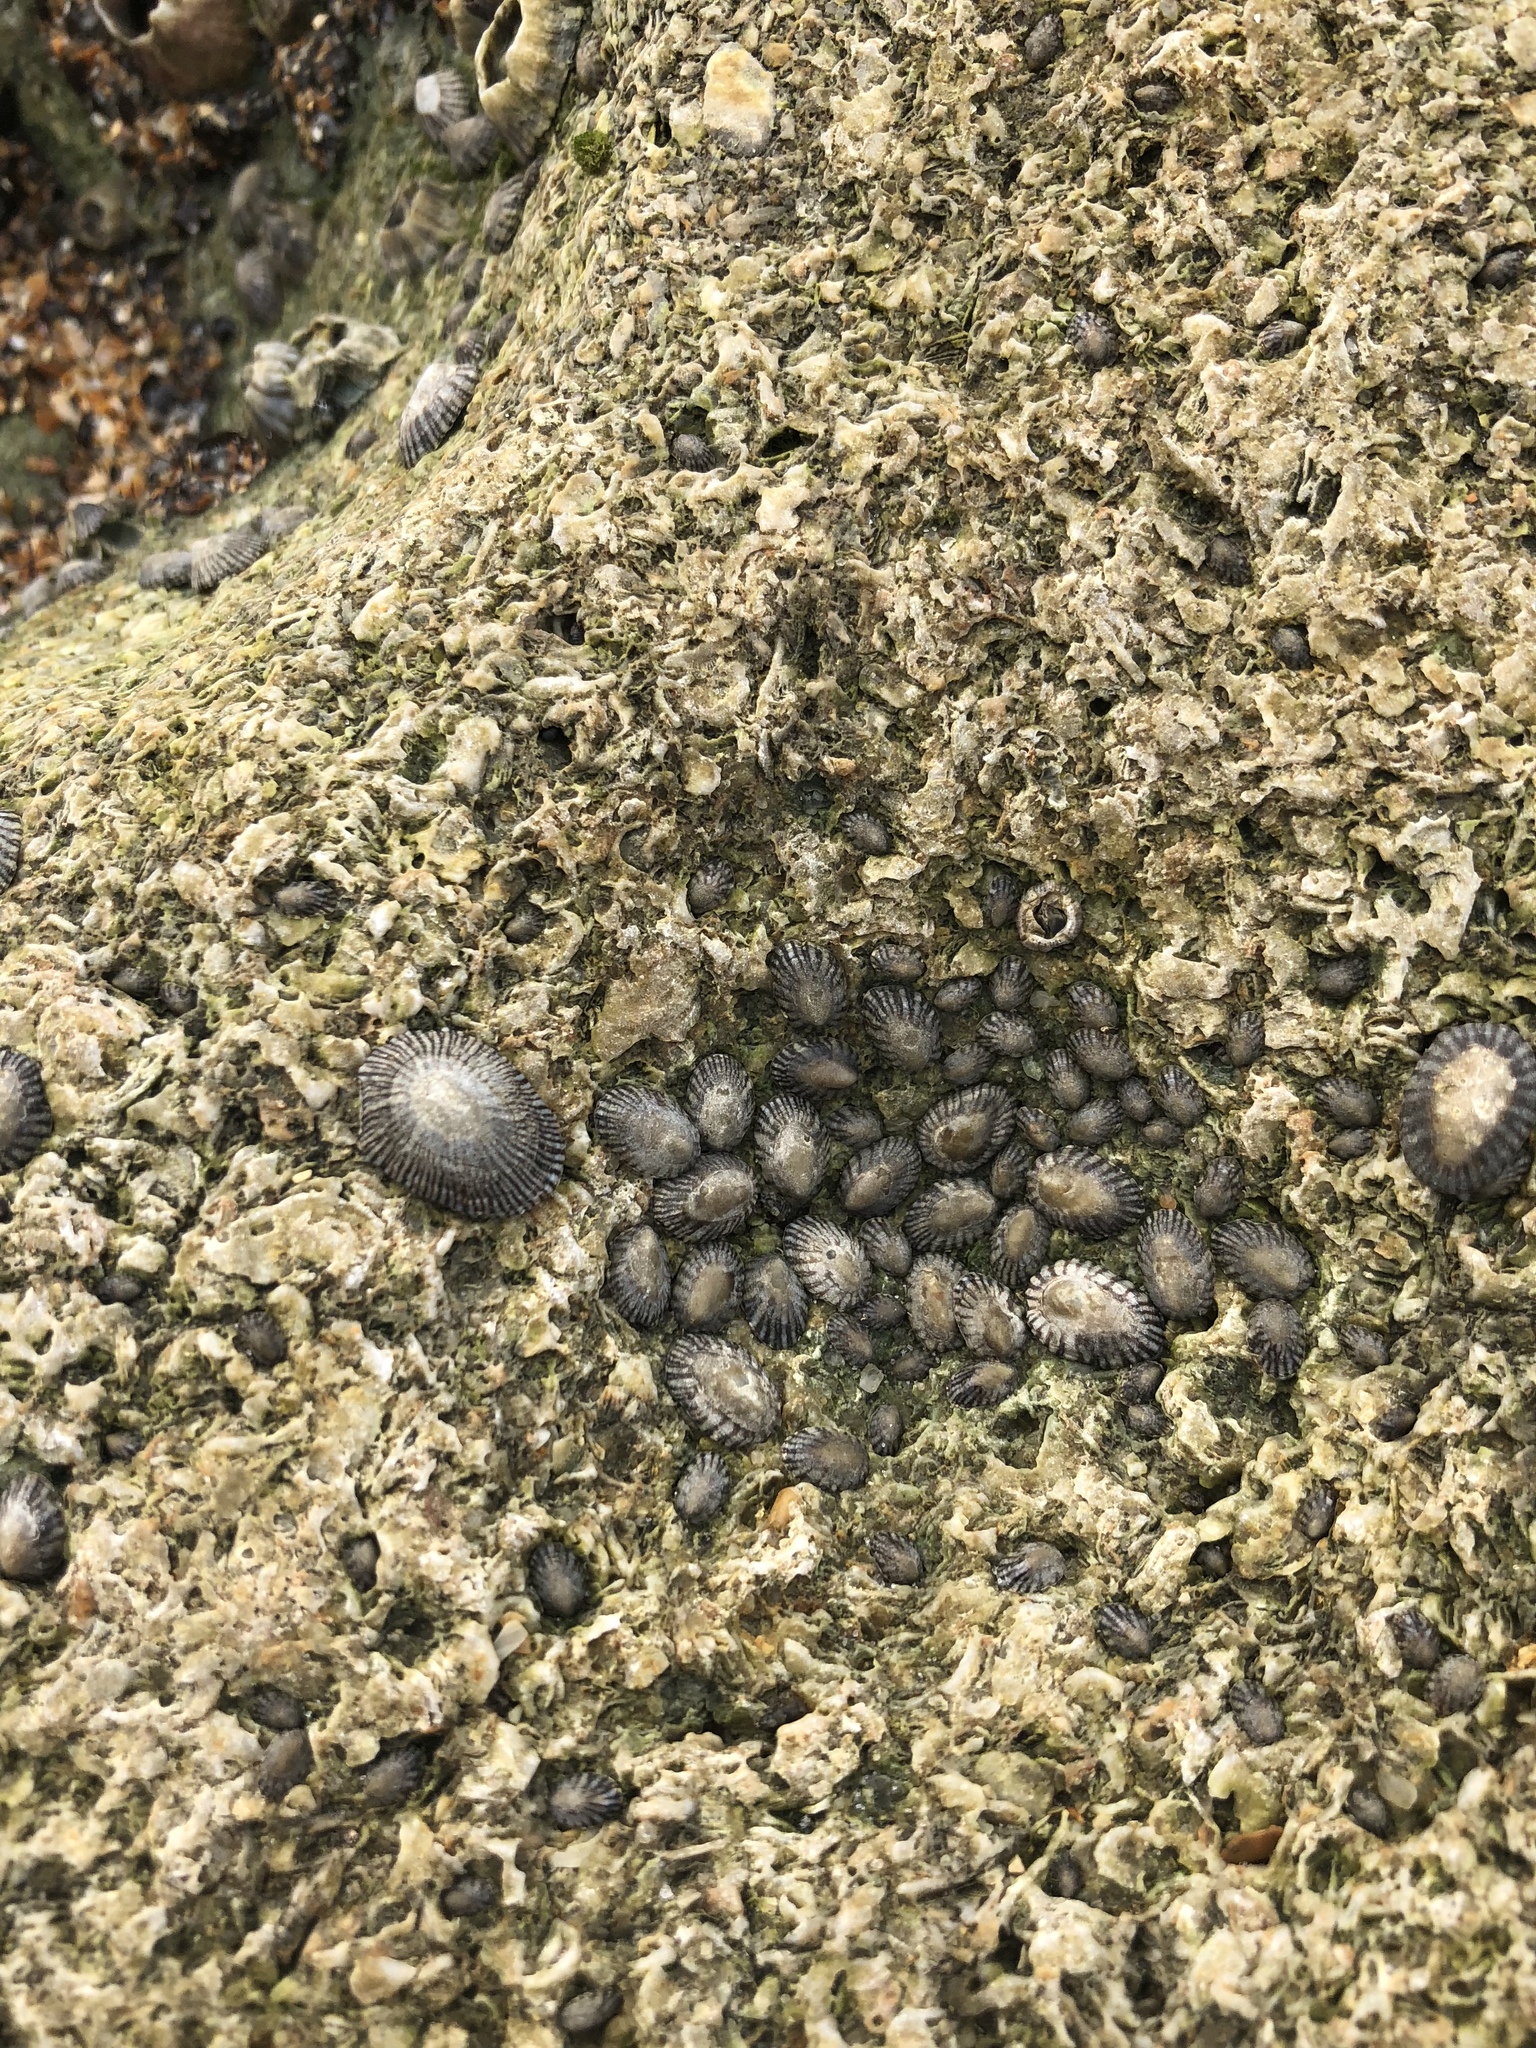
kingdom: Animalia
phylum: Mollusca
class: Gastropoda
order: Siphonariida
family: Siphonariidae
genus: Siphonaria
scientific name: Siphonaria naufragum
